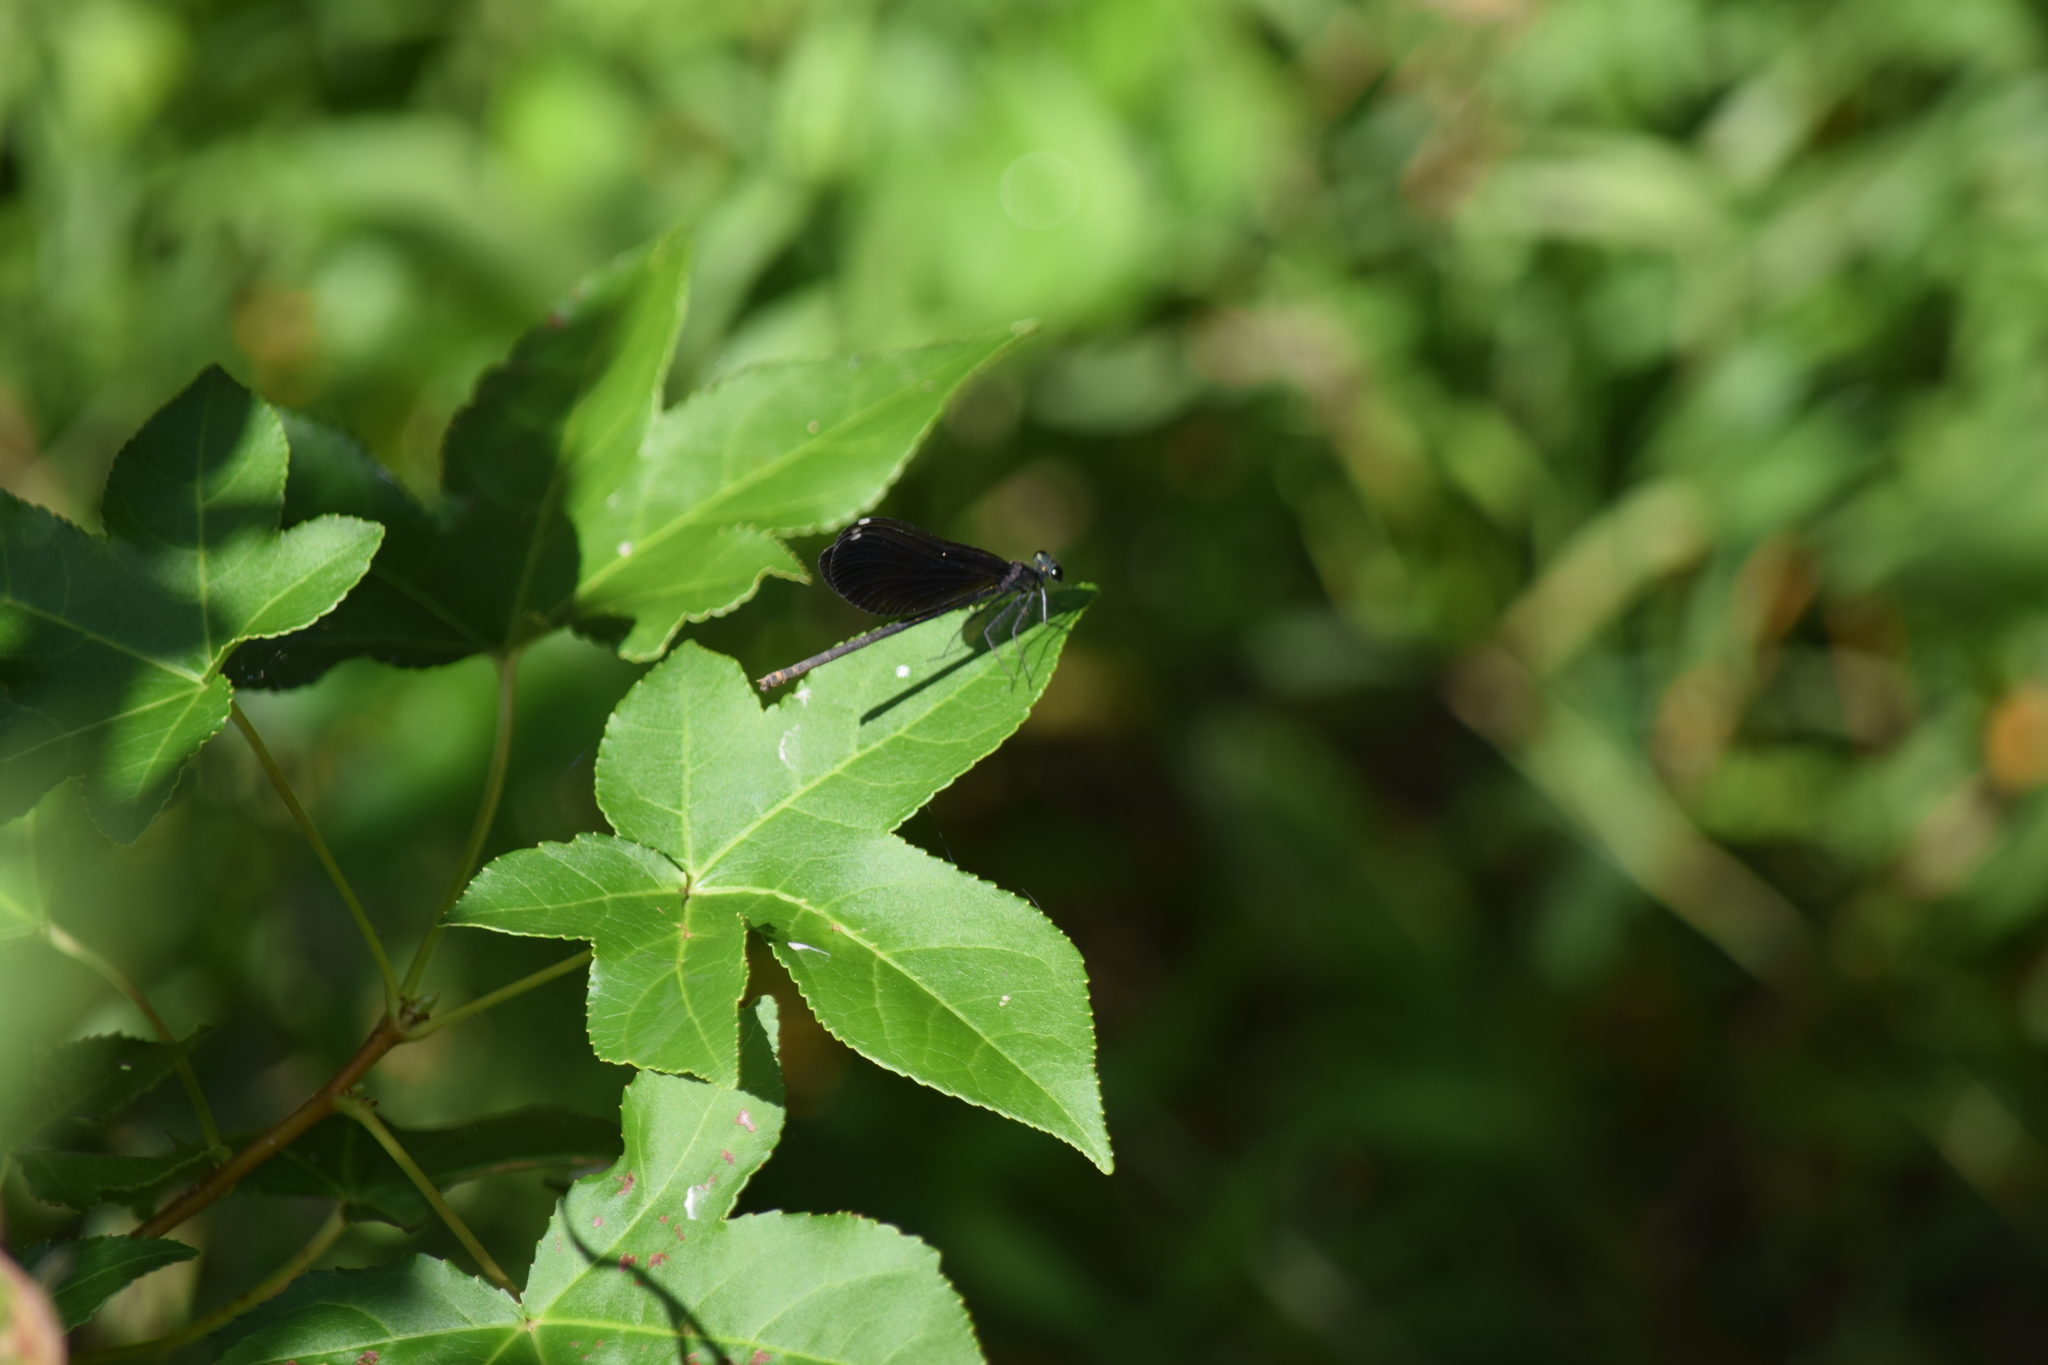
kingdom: Animalia
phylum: Arthropoda
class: Insecta
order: Odonata
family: Calopterygidae
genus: Calopteryx
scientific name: Calopteryx maculata
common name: Ebony jewelwing
